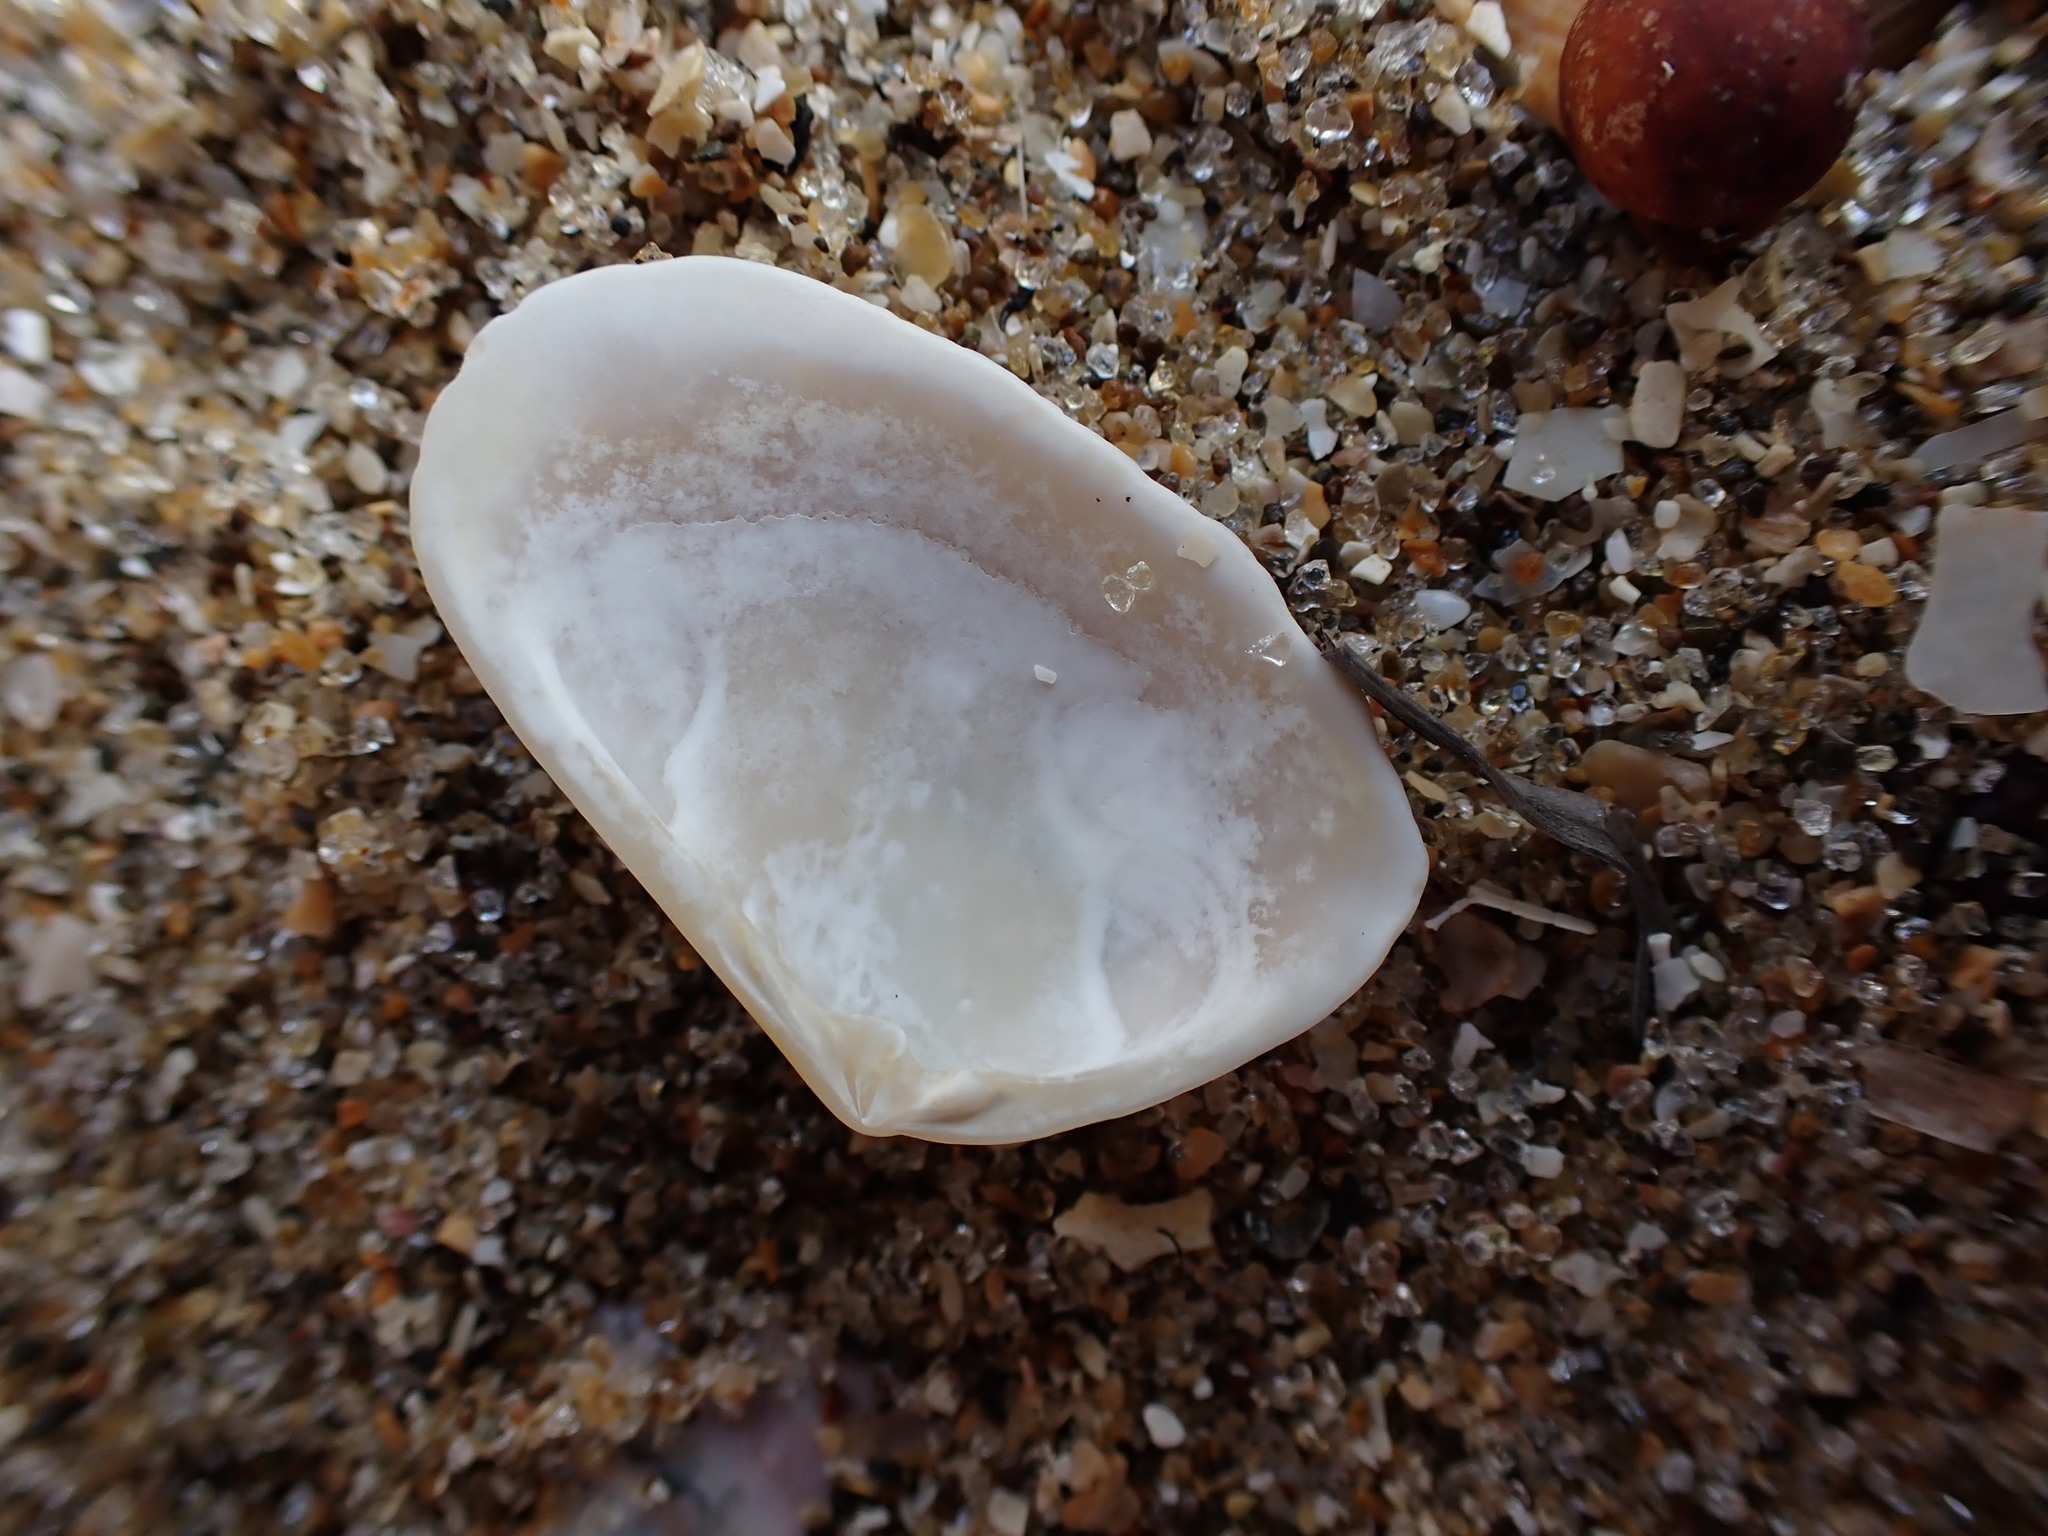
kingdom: Animalia
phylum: Mollusca
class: Bivalvia
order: Venerida
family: Mesodesmatidae
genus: Paphies
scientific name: Paphies subtriangulata
